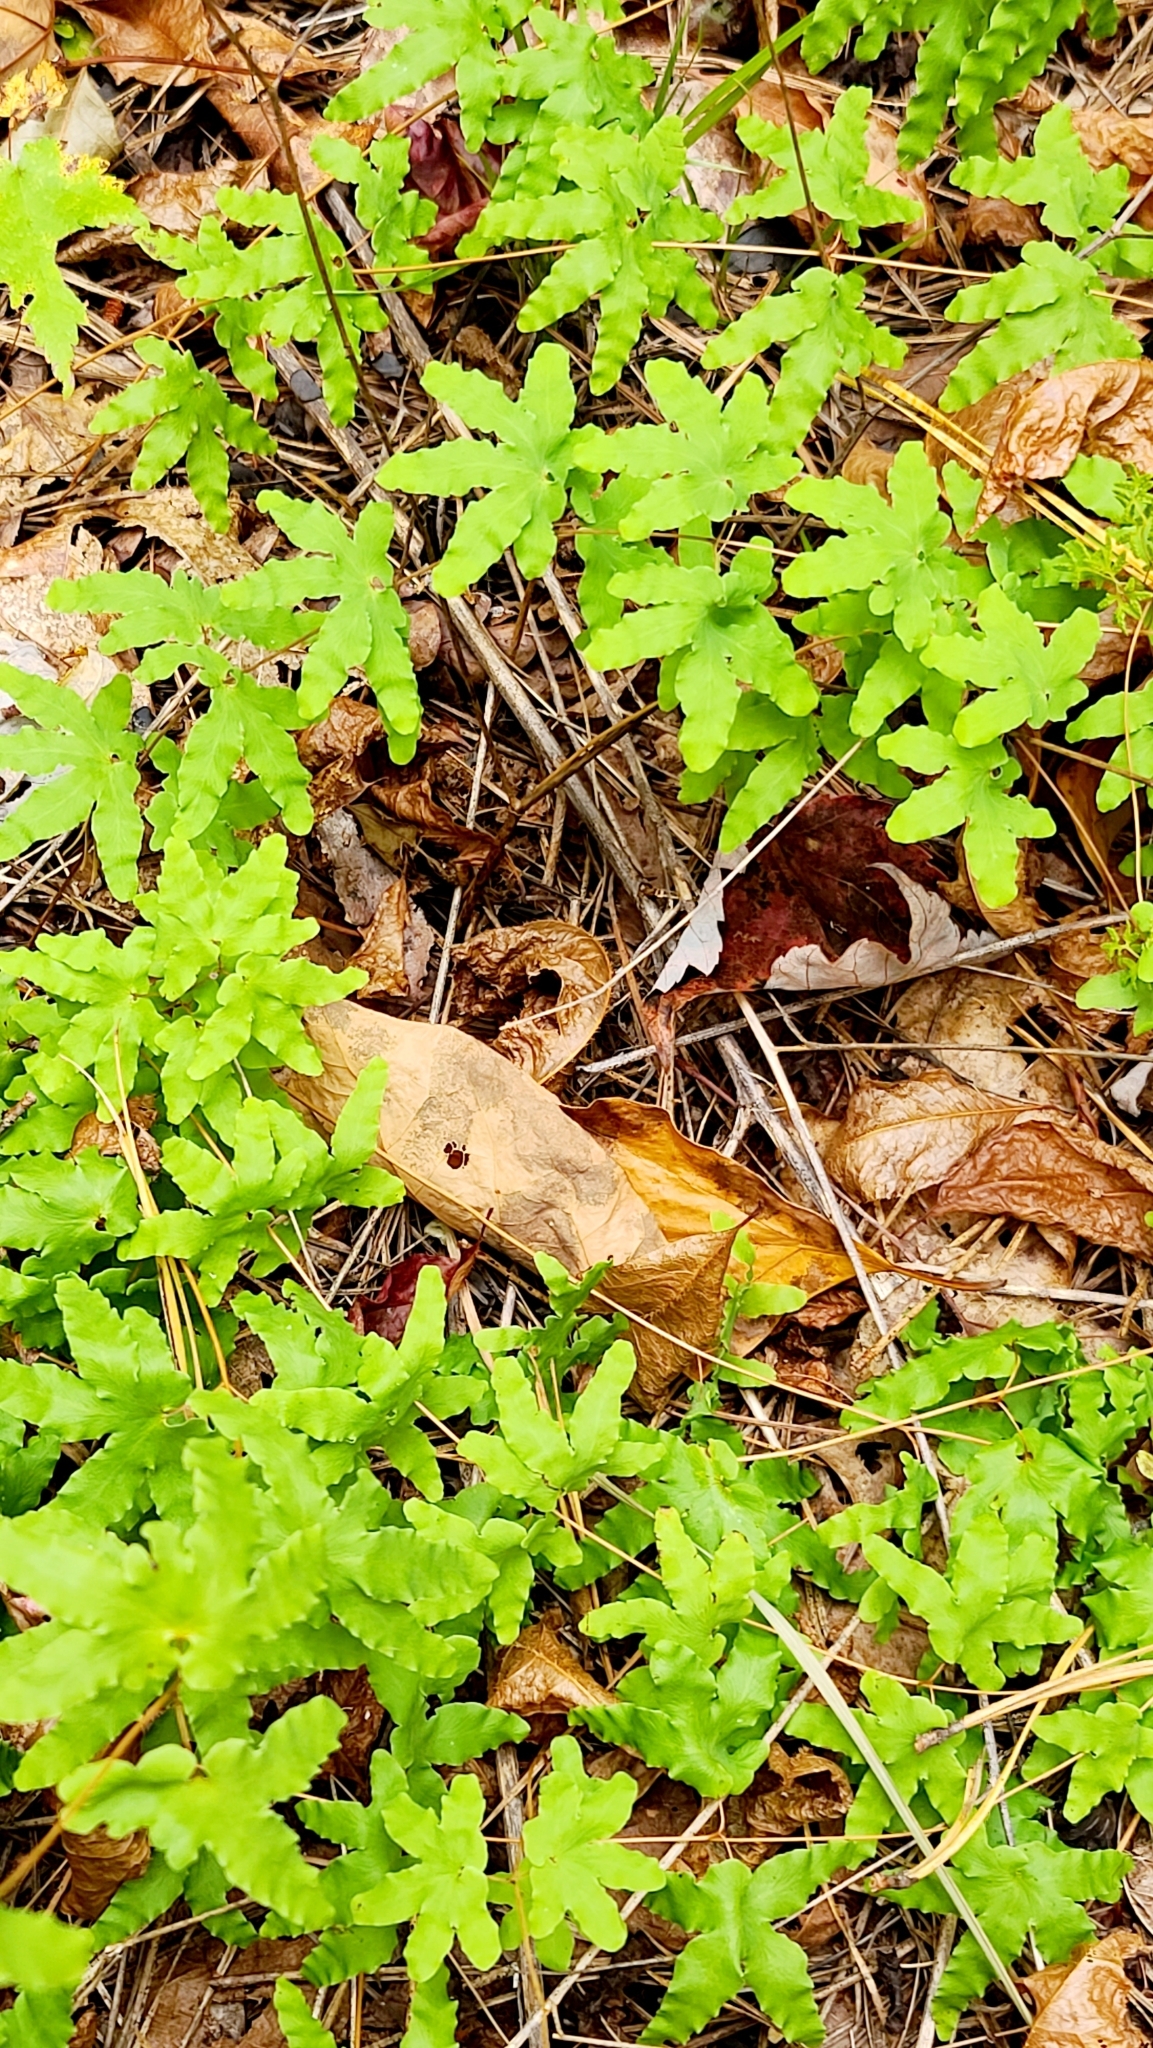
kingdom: Plantae
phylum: Tracheophyta
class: Polypodiopsida
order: Schizaeales
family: Lygodiaceae
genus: Lygodium
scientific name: Lygodium palmatum
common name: American climbing fern
